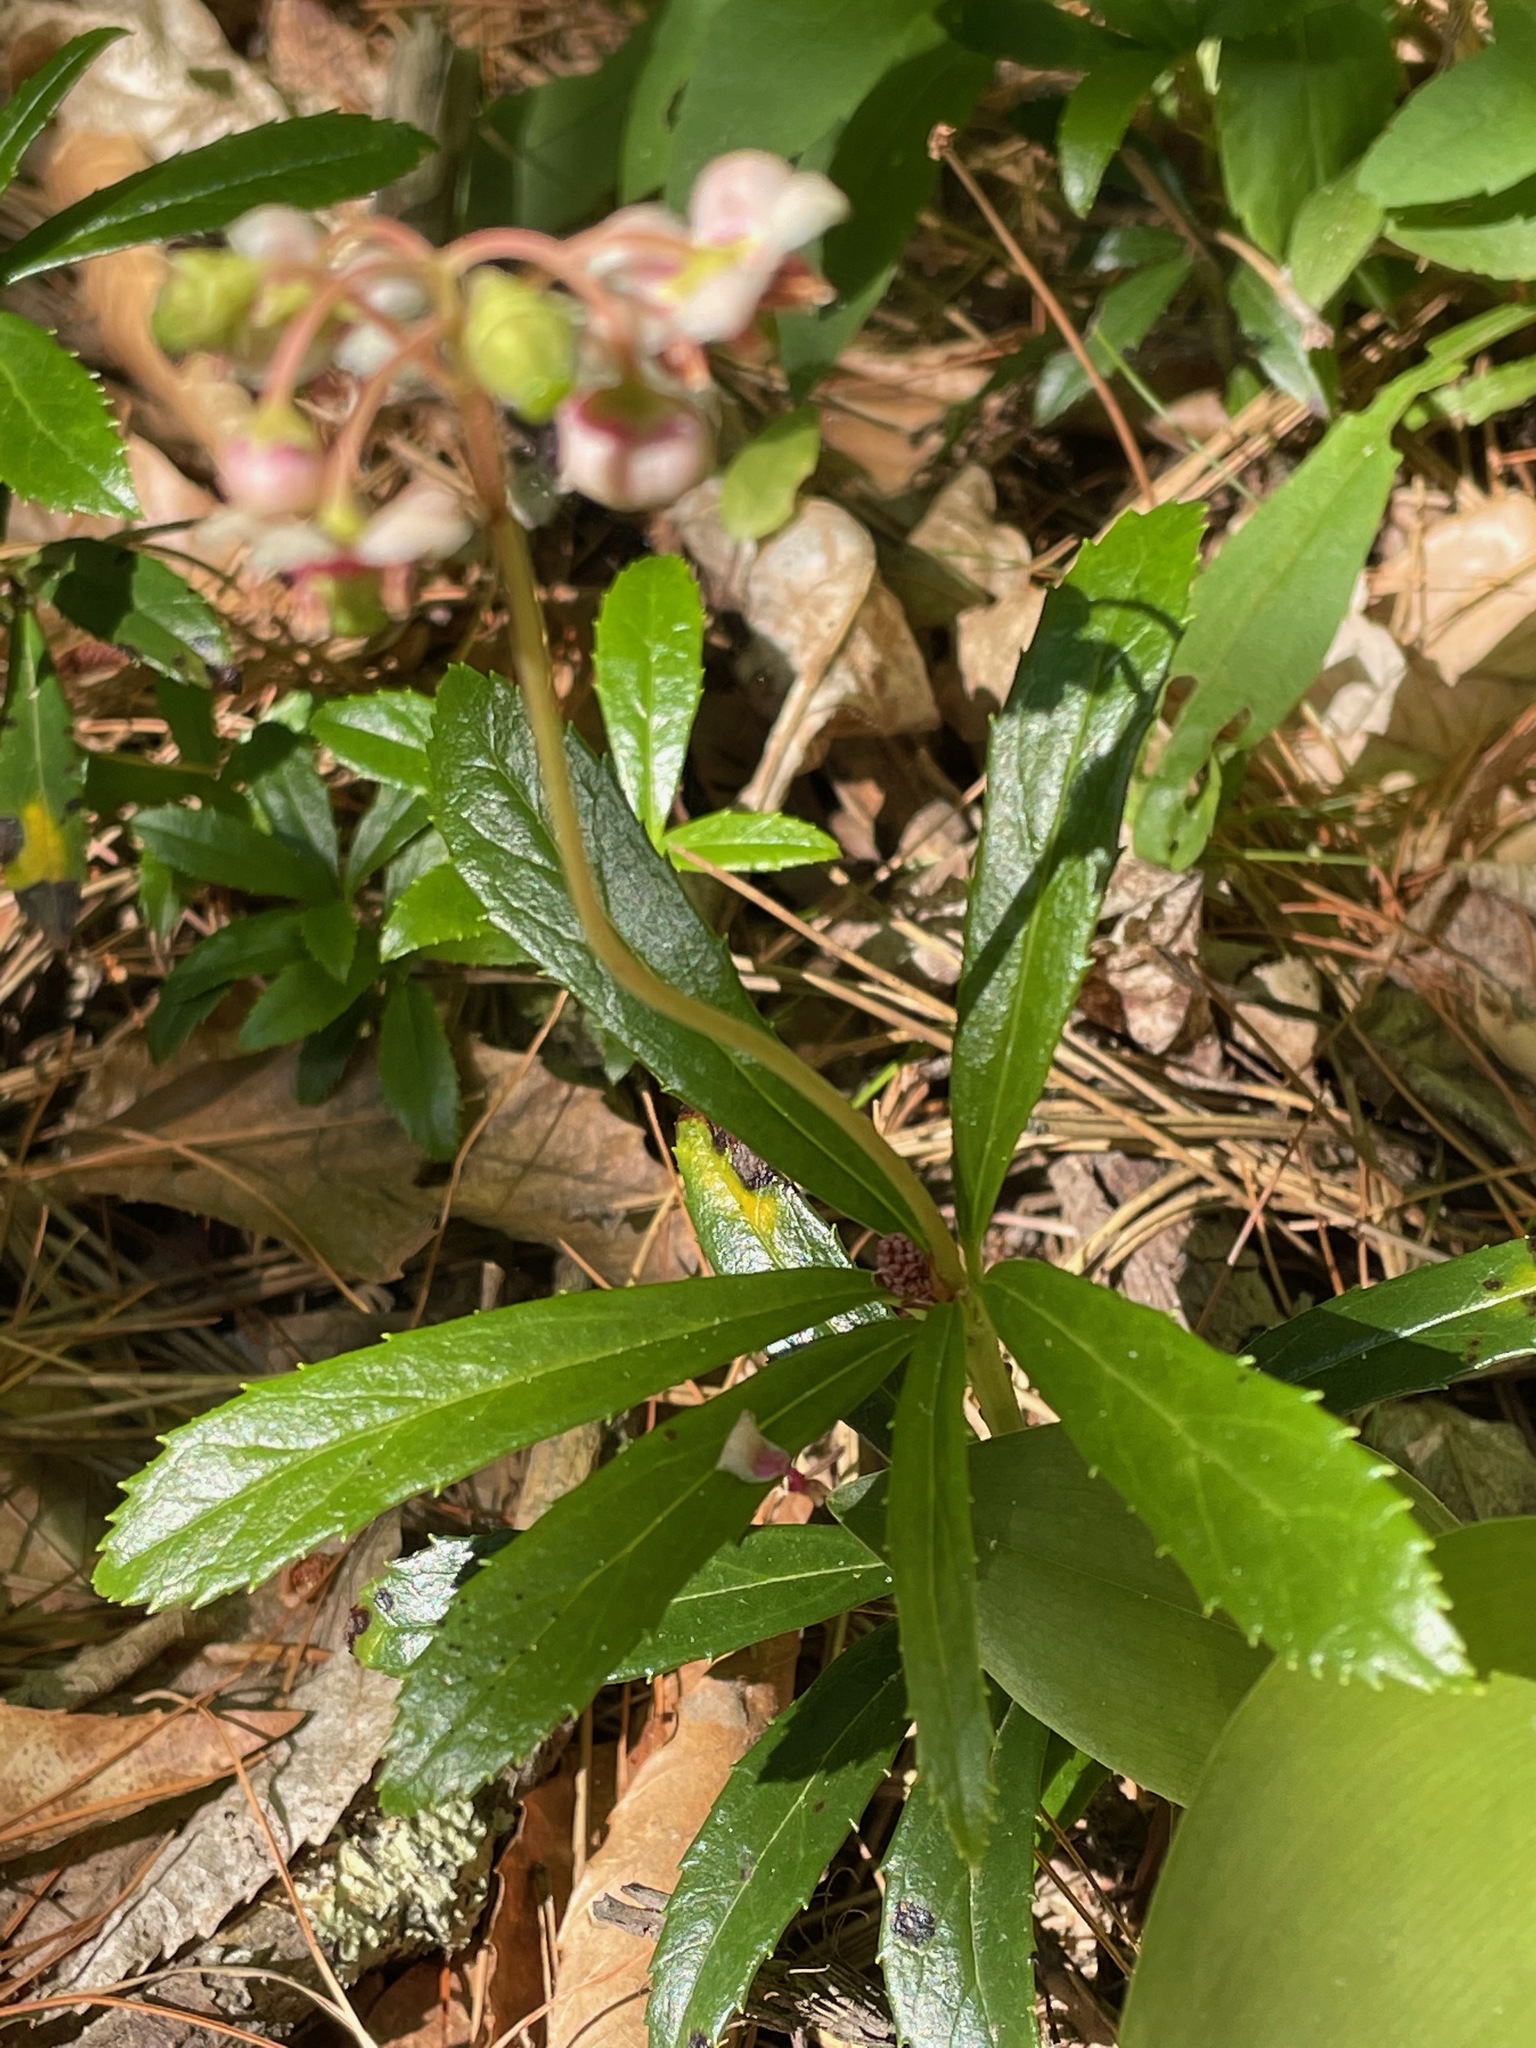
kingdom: Plantae
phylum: Tracheophyta
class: Magnoliopsida
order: Ericales
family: Ericaceae
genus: Chimaphila
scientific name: Chimaphila umbellata
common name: Pipsissewa
